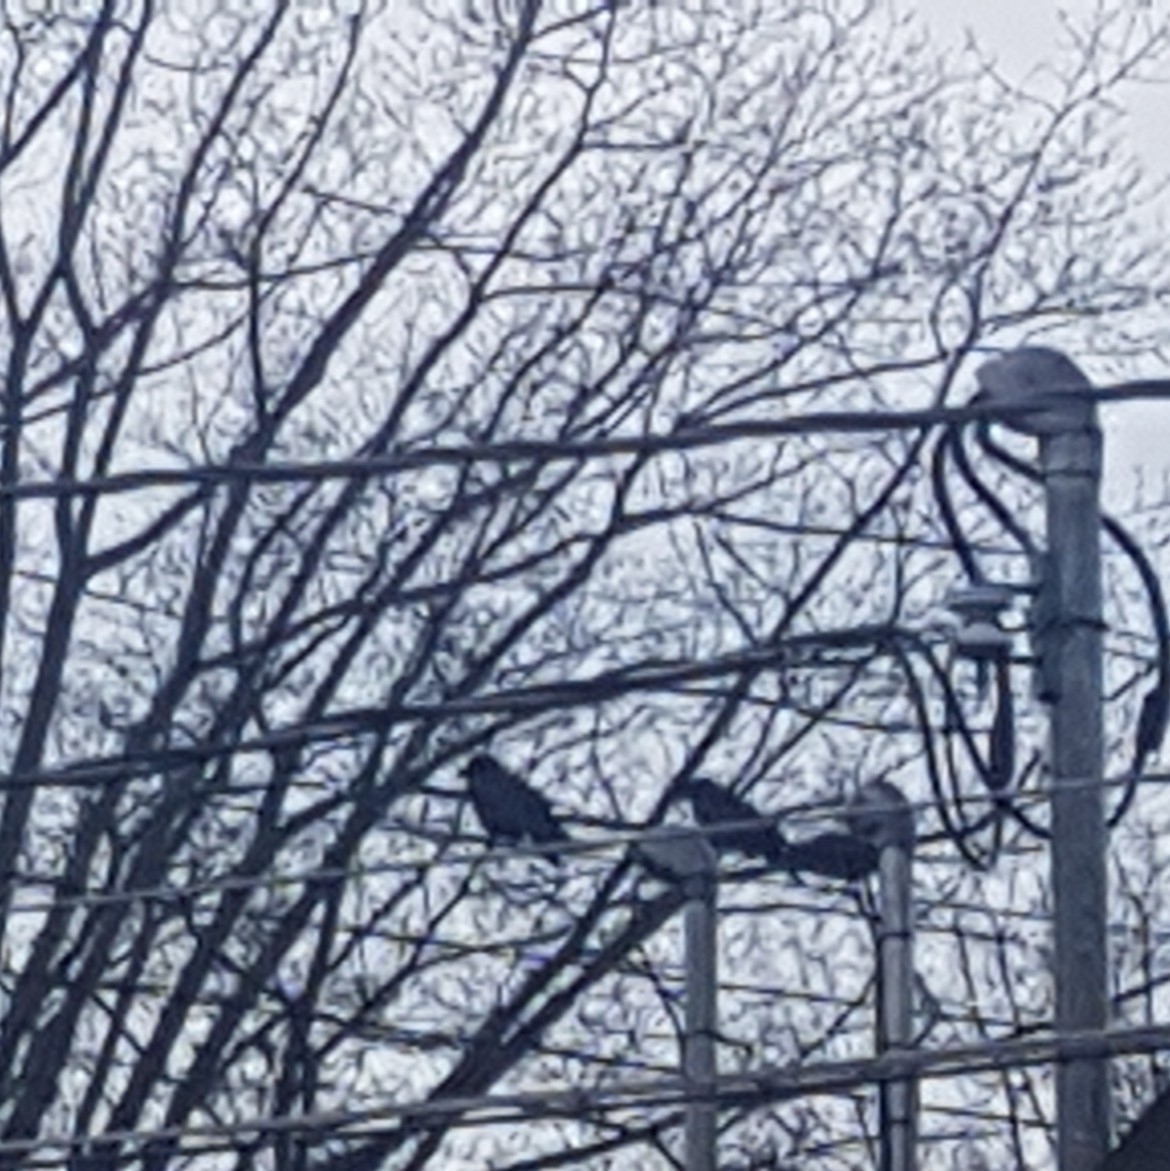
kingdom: Animalia
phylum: Chordata
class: Aves
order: Passeriformes
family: Corvidae
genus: Corvus
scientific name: Corvus brachyrhynchos
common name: American crow
